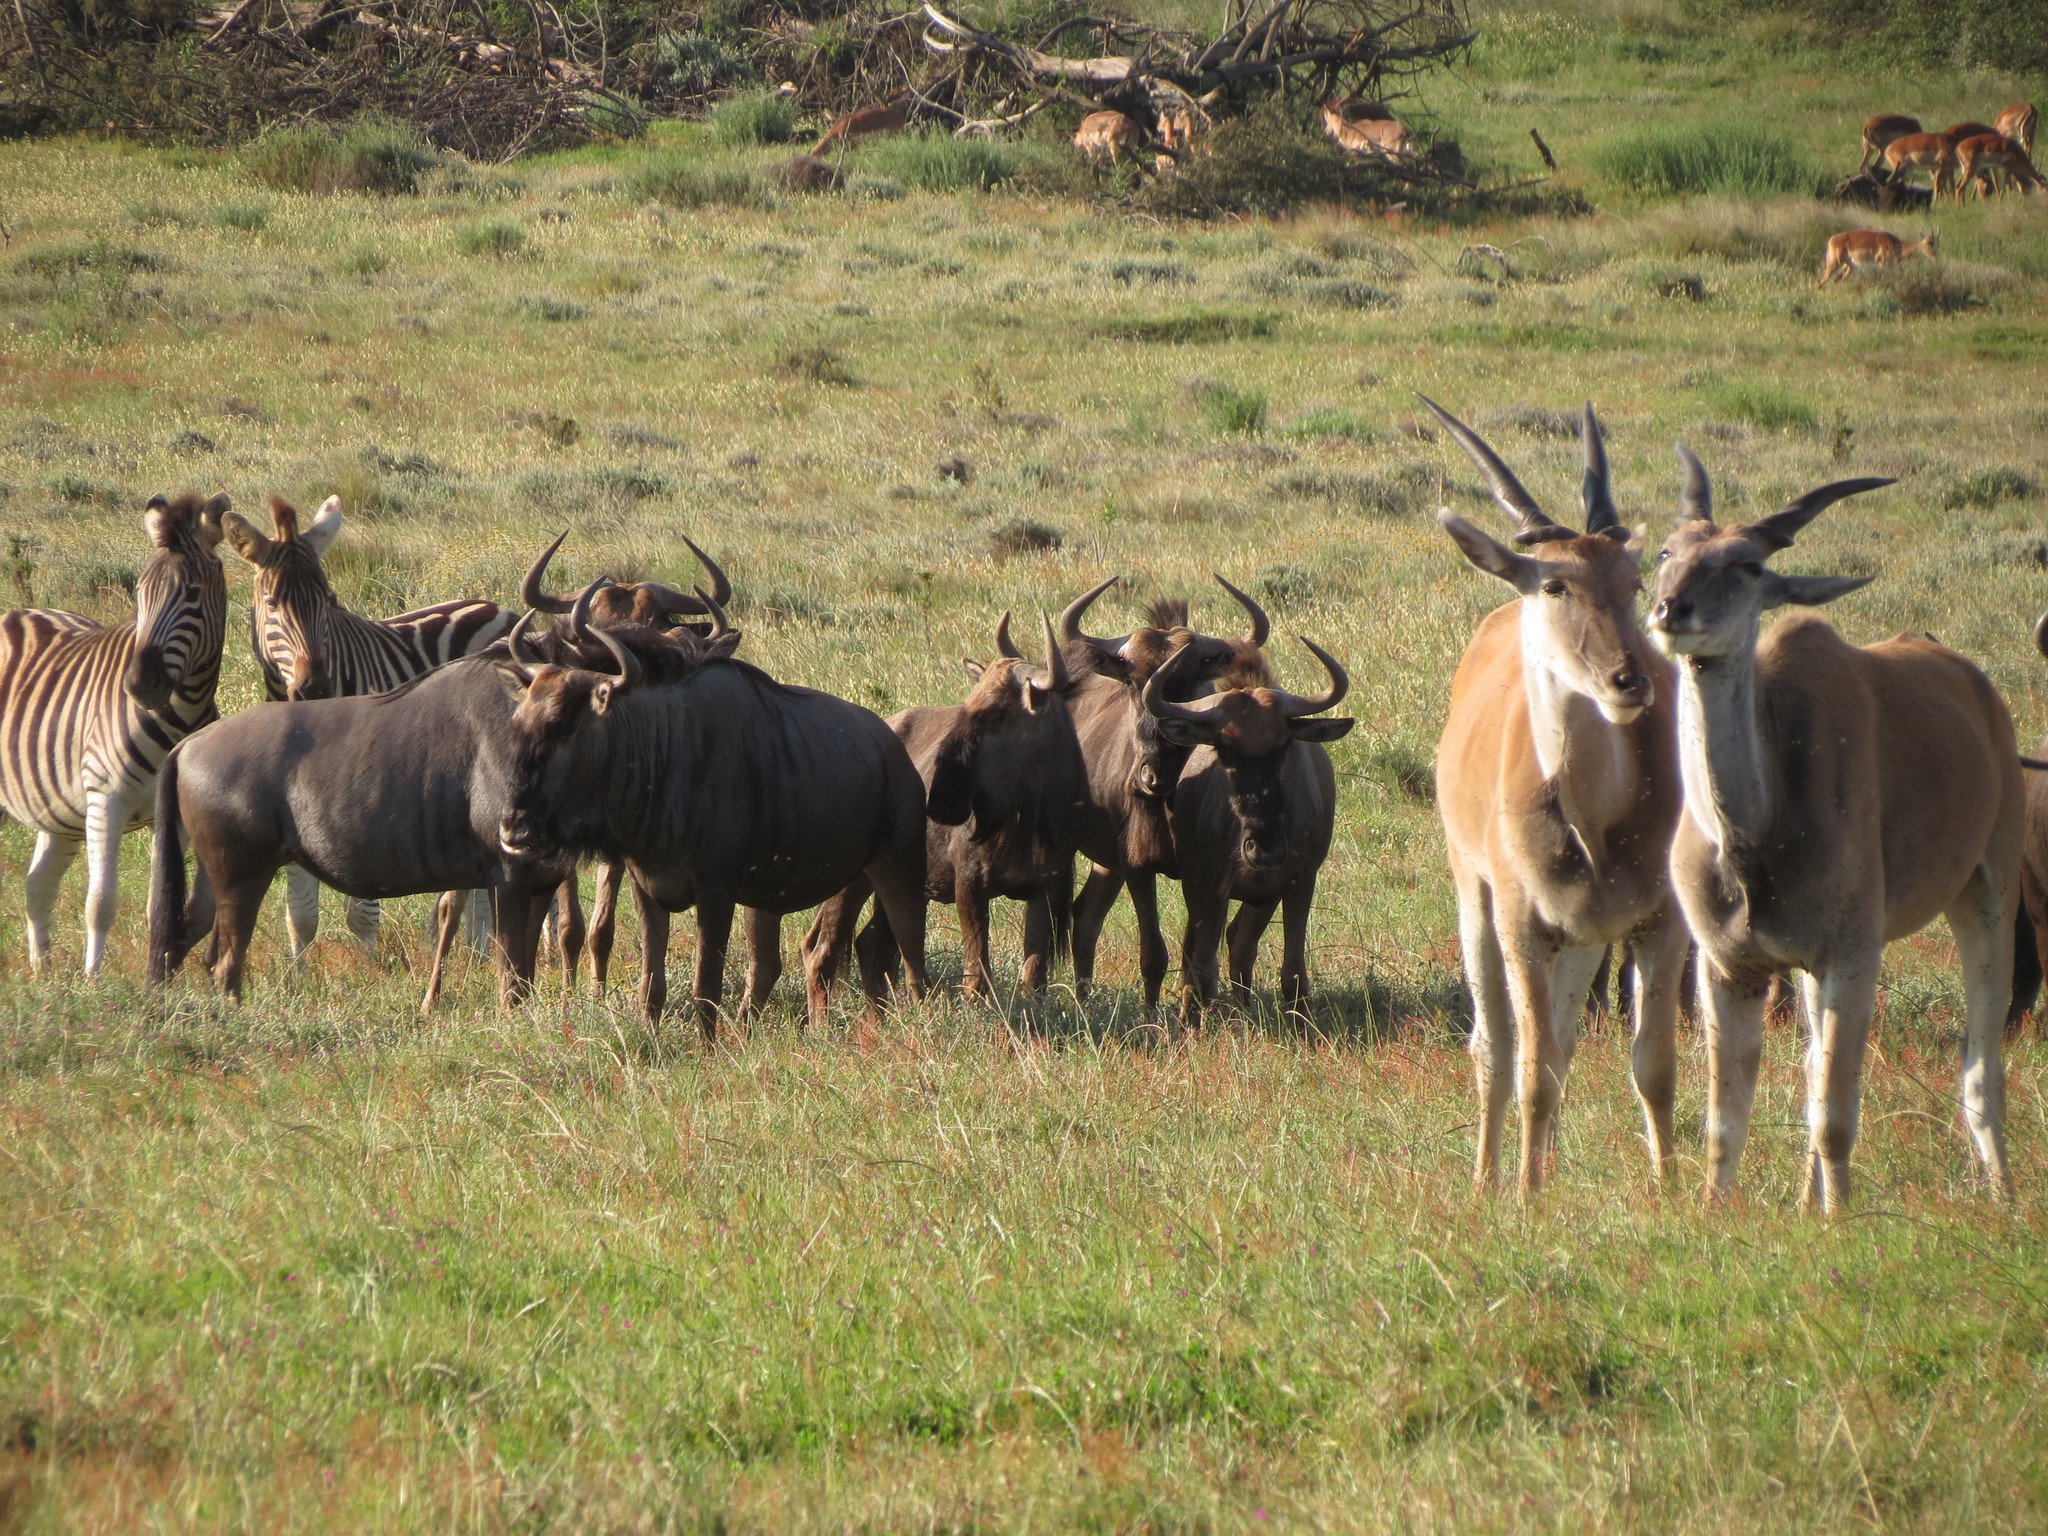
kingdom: Animalia
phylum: Chordata
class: Mammalia
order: Artiodactyla
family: Bovidae
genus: Connochaetes
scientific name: Connochaetes taurinus
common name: Blue wildebeest
